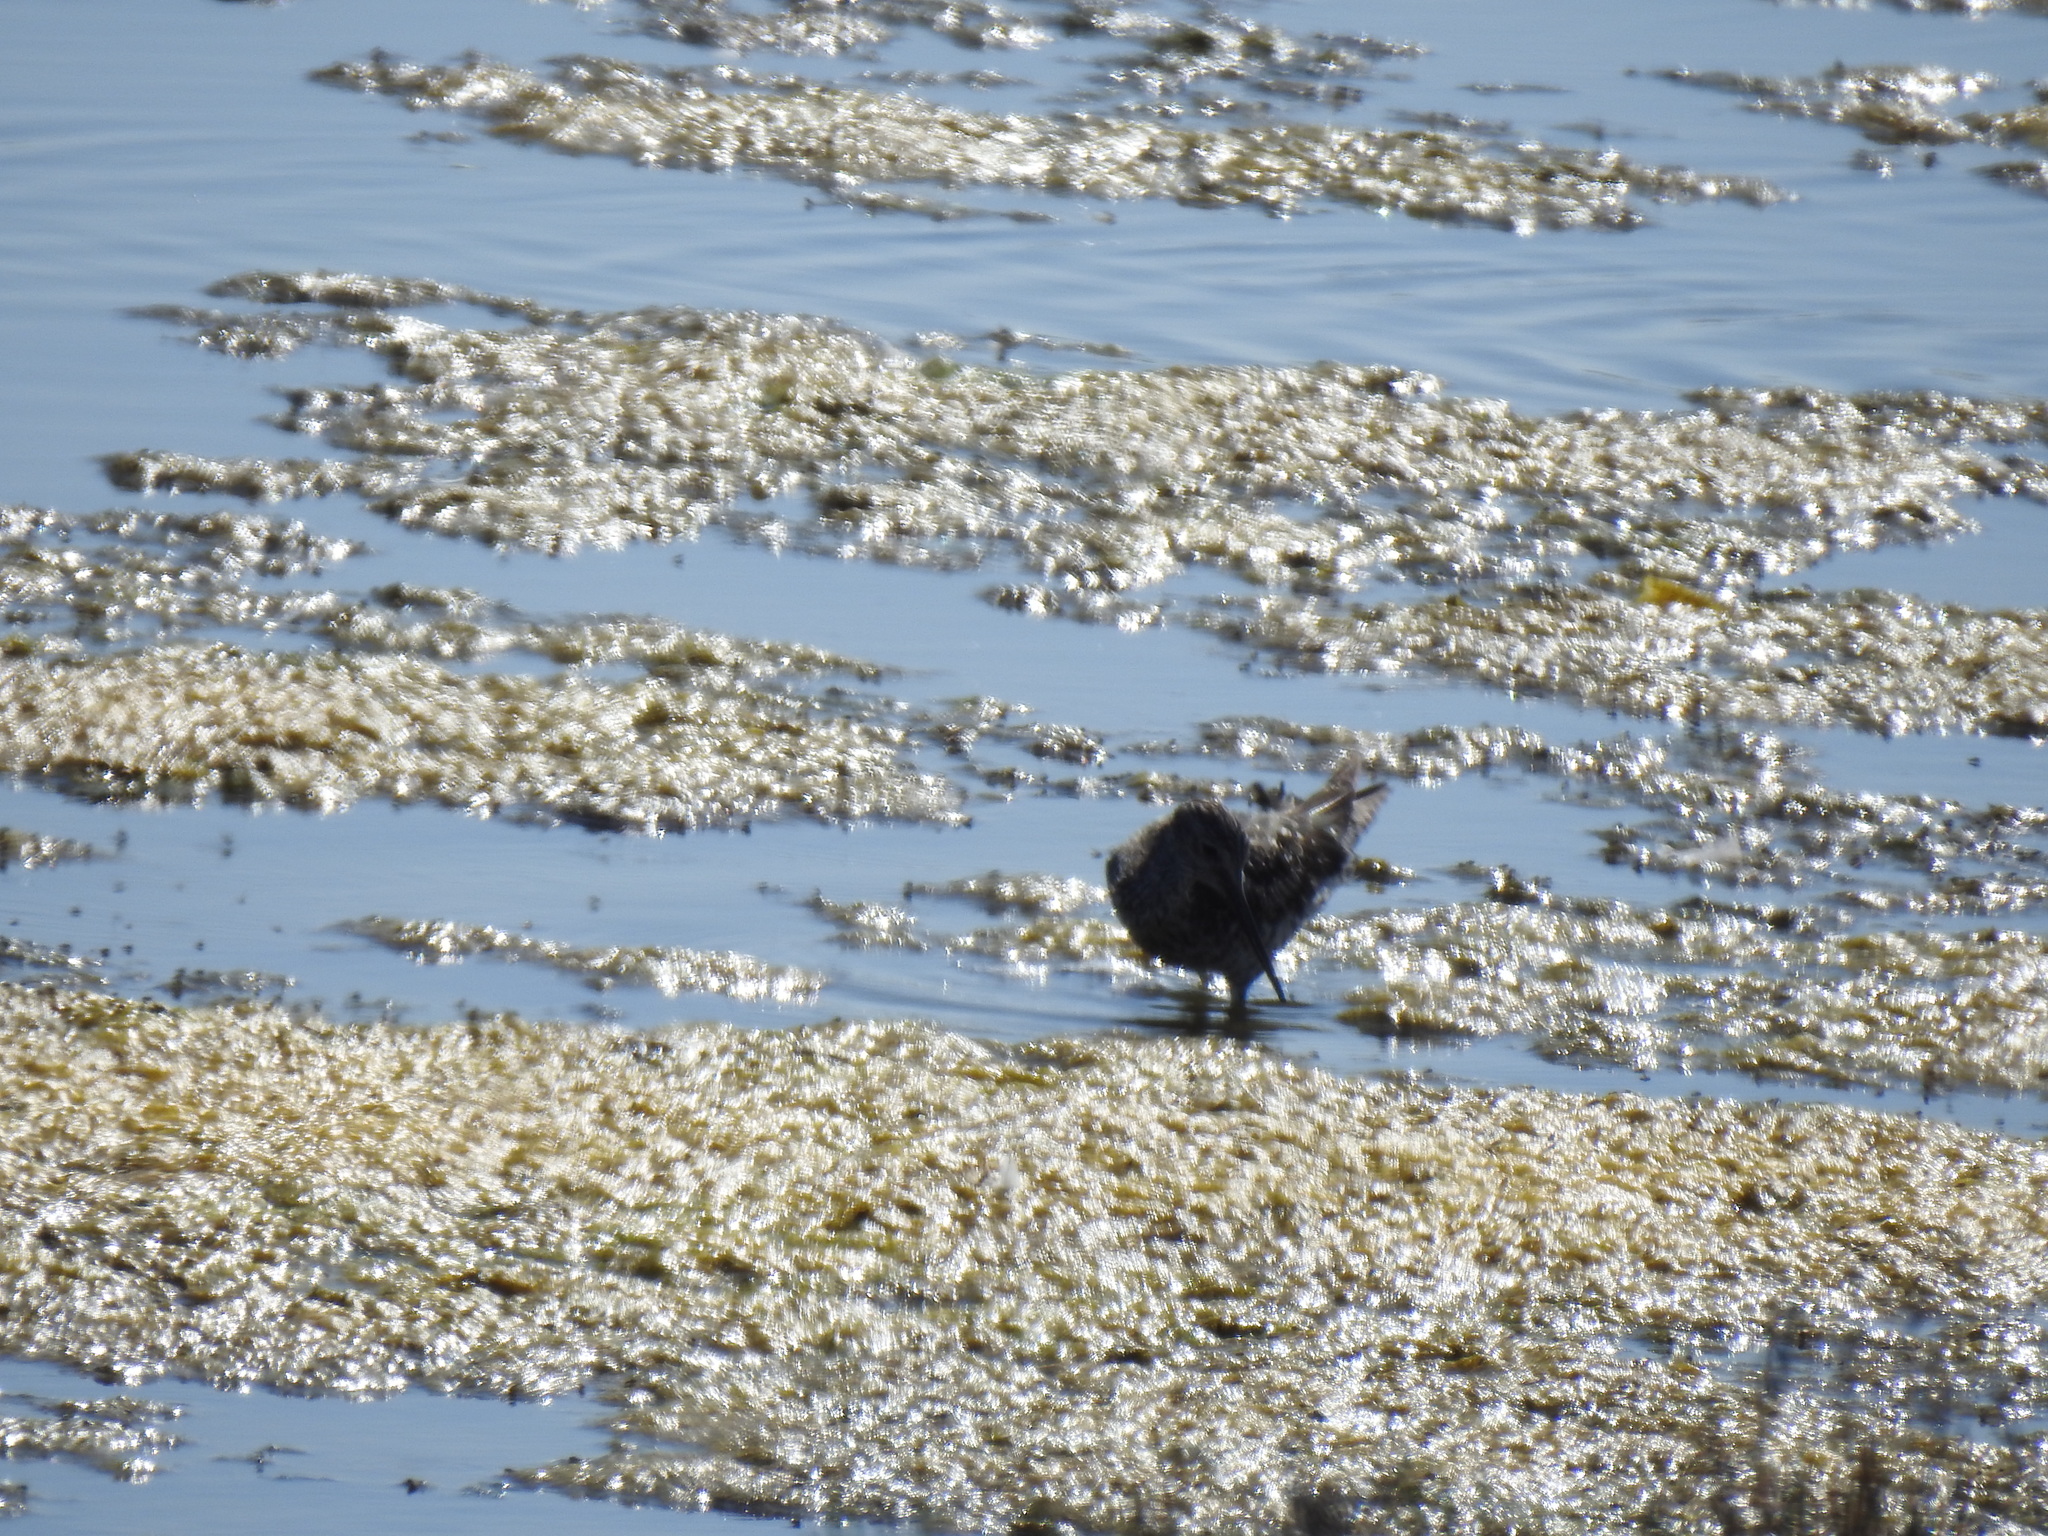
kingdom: Animalia
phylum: Chordata
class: Aves
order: Charadriiformes
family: Scolopacidae
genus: Tringa
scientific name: Tringa melanoleuca
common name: Greater yellowlegs
